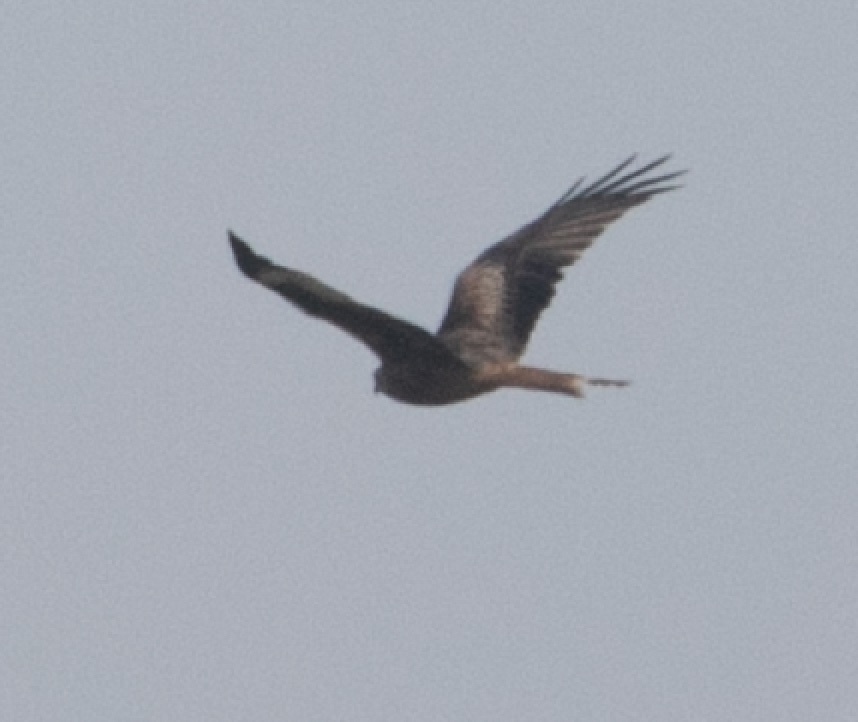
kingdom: Animalia
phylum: Chordata
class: Aves
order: Accipitriformes
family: Accipitridae
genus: Milvus
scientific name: Milvus milvus
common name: Red kite
